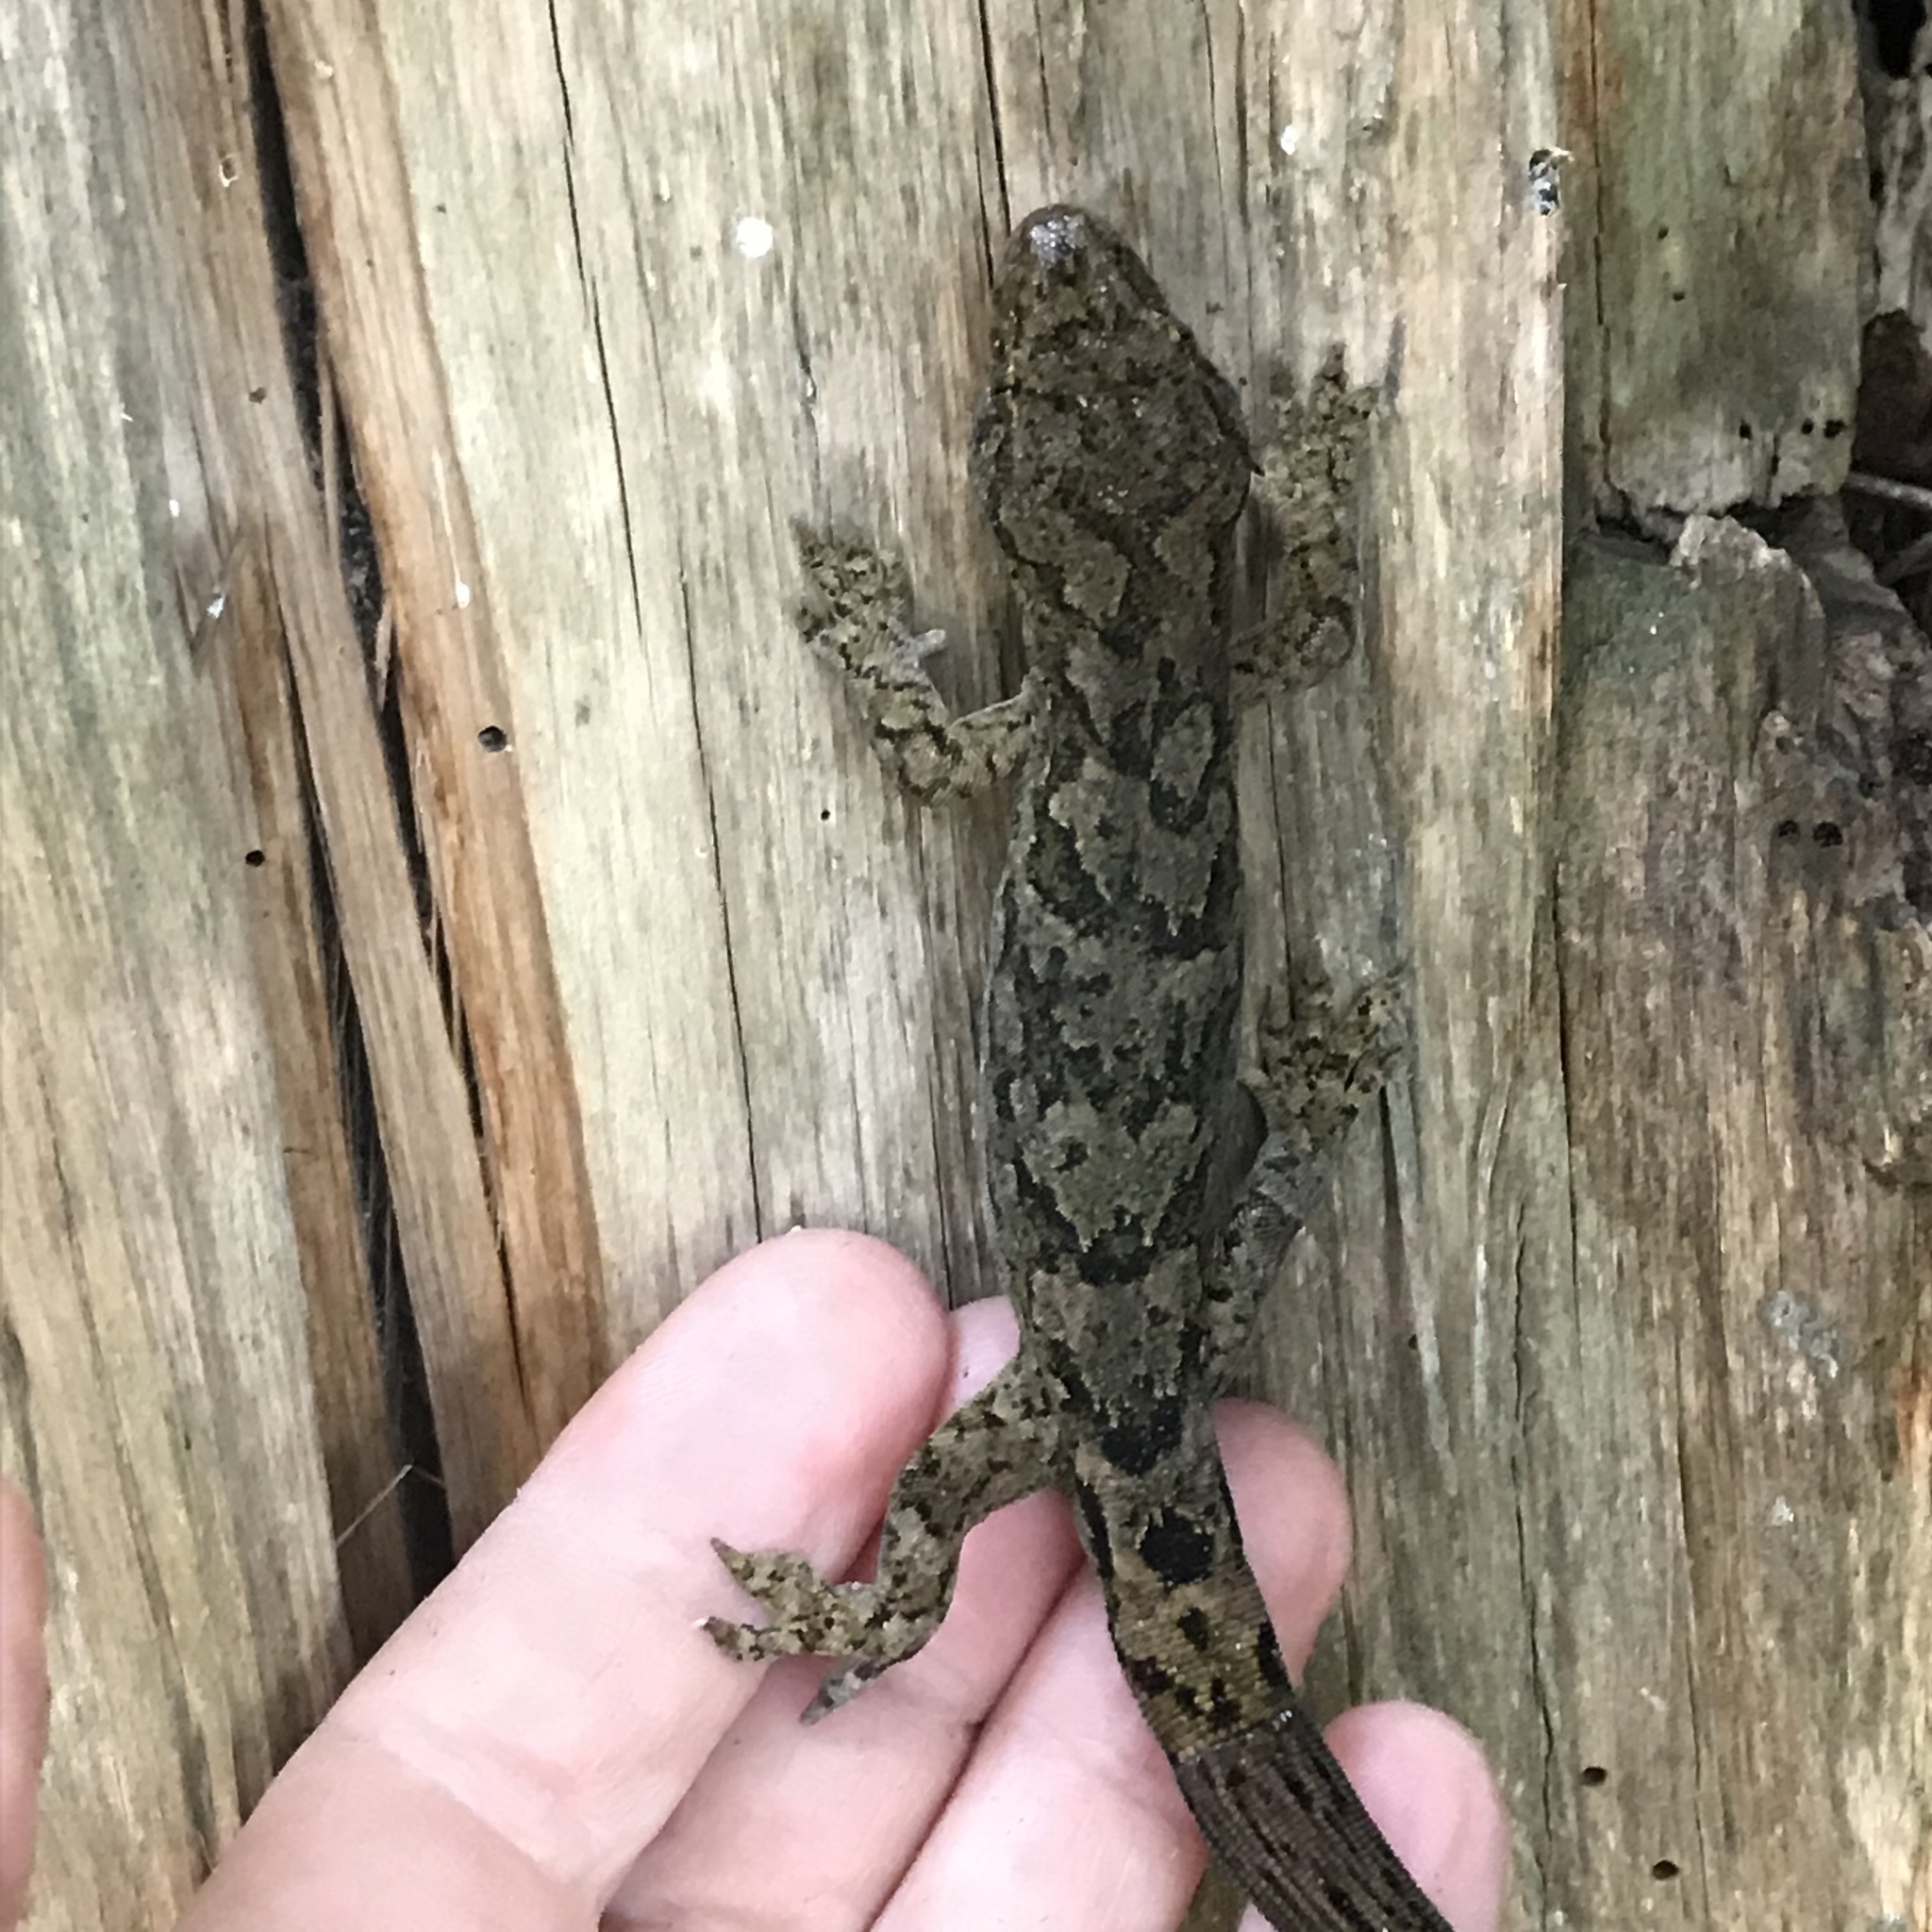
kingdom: Animalia
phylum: Chordata
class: Squamata
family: Diplodactylidae
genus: Woodworthia
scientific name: Woodworthia maculata
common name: Raukawa gecko
